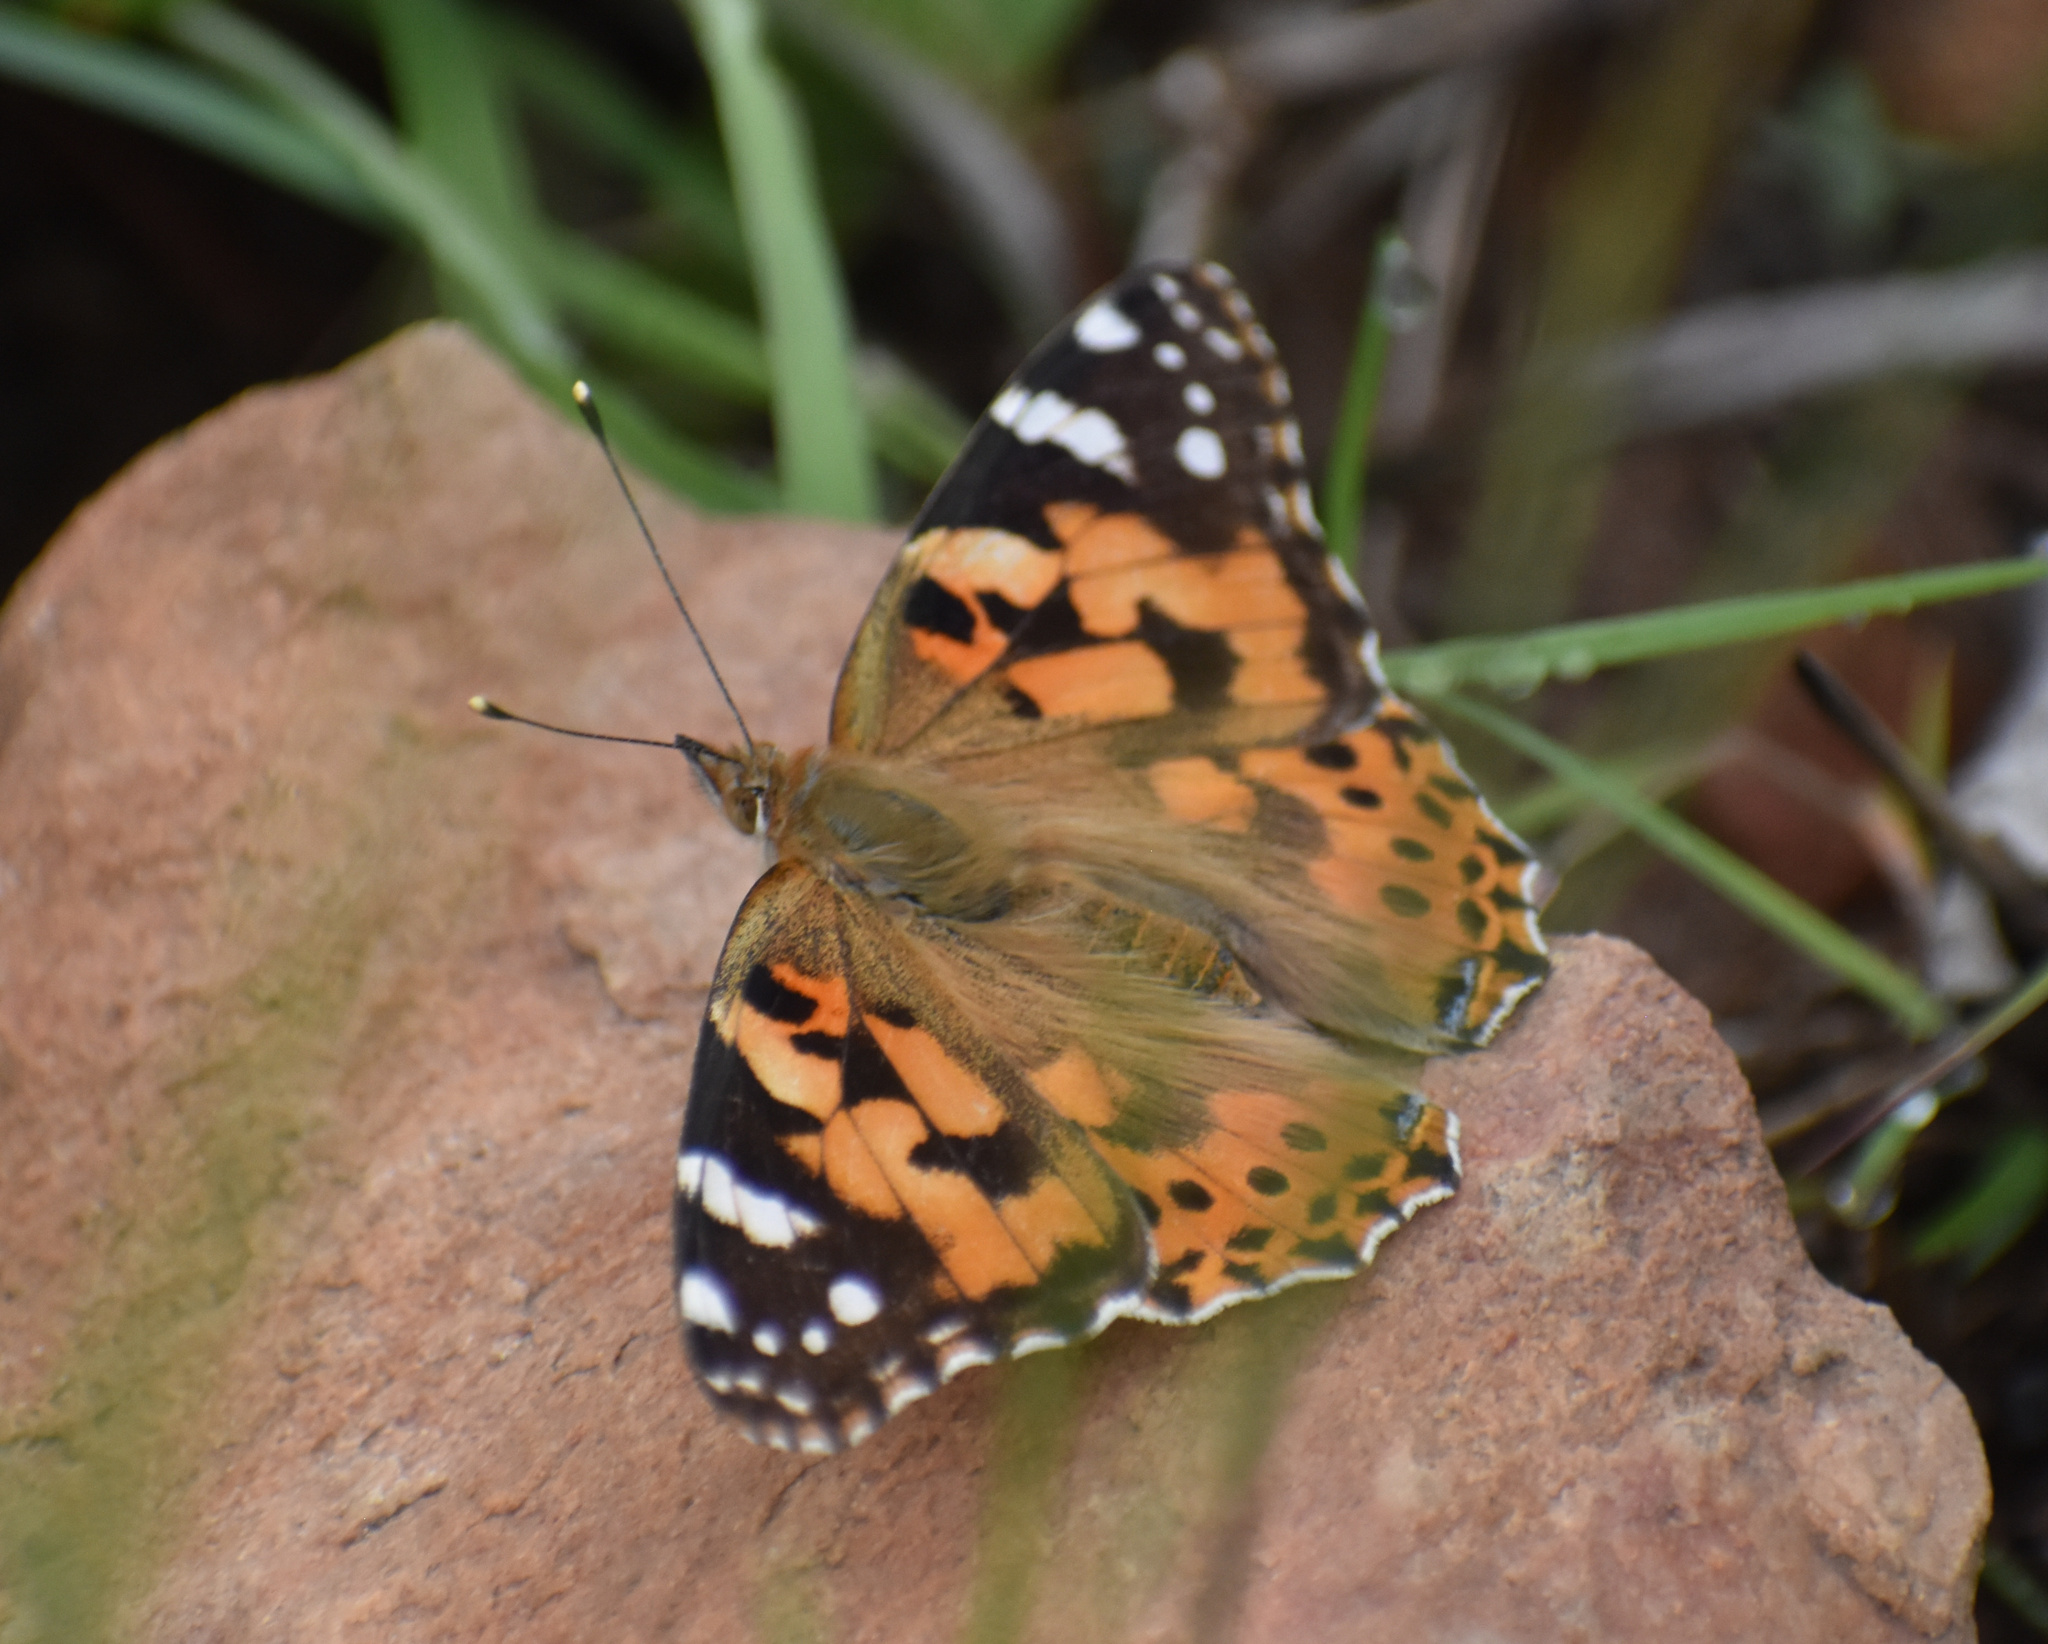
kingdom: Animalia
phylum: Arthropoda
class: Insecta
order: Lepidoptera
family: Nymphalidae
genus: Vanessa
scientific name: Vanessa cardui
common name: Painted lady
